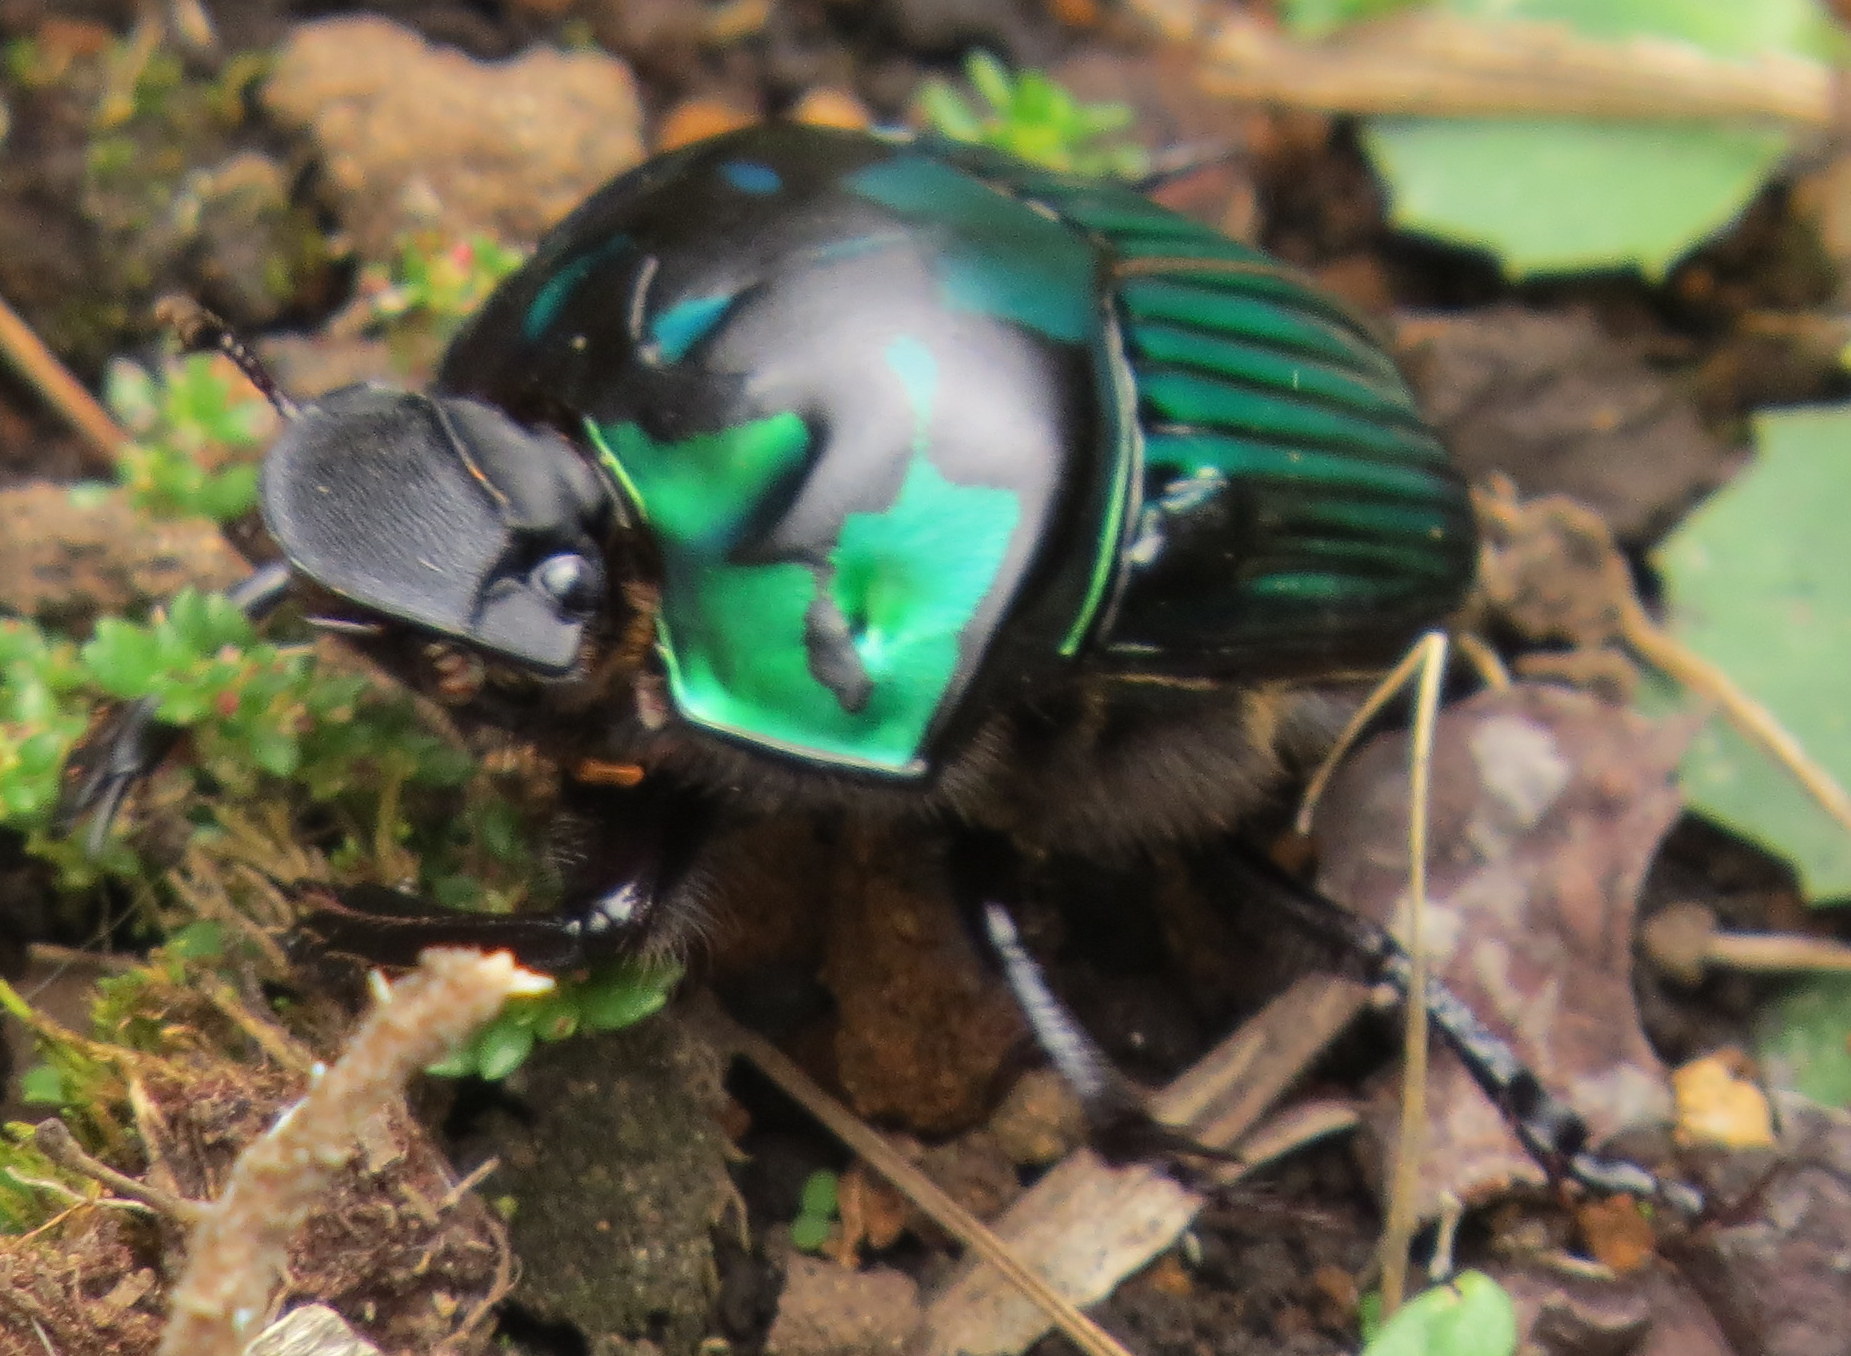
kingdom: Animalia
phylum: Arthropoda
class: Insecta
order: Coleoptera
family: Scarabaeidae
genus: Oxysternon
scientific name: Oxysternon conspicillatum
